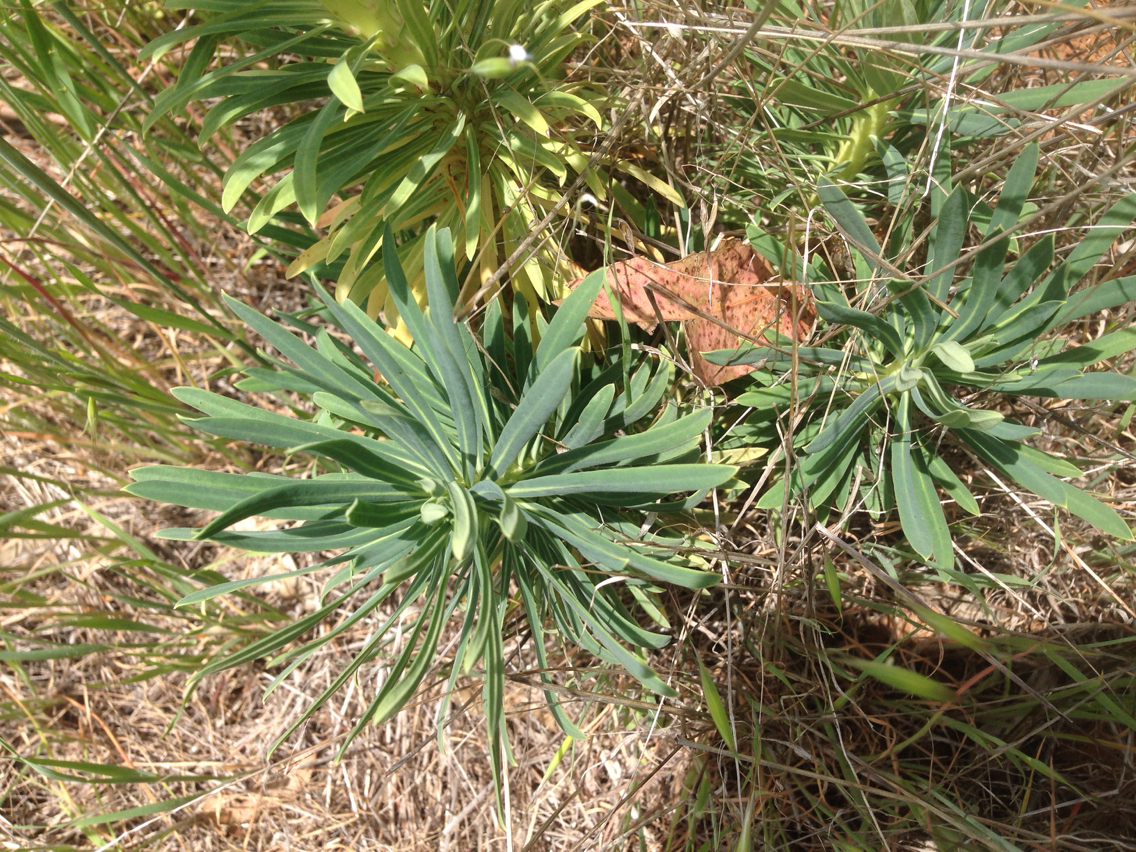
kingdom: Plantae
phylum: Tracheophyta
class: Magnoliopsida
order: Malpighiales
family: Euphorbiaceae
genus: Euphorbia
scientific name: Euphorbia characias
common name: Mediterranean spurge
